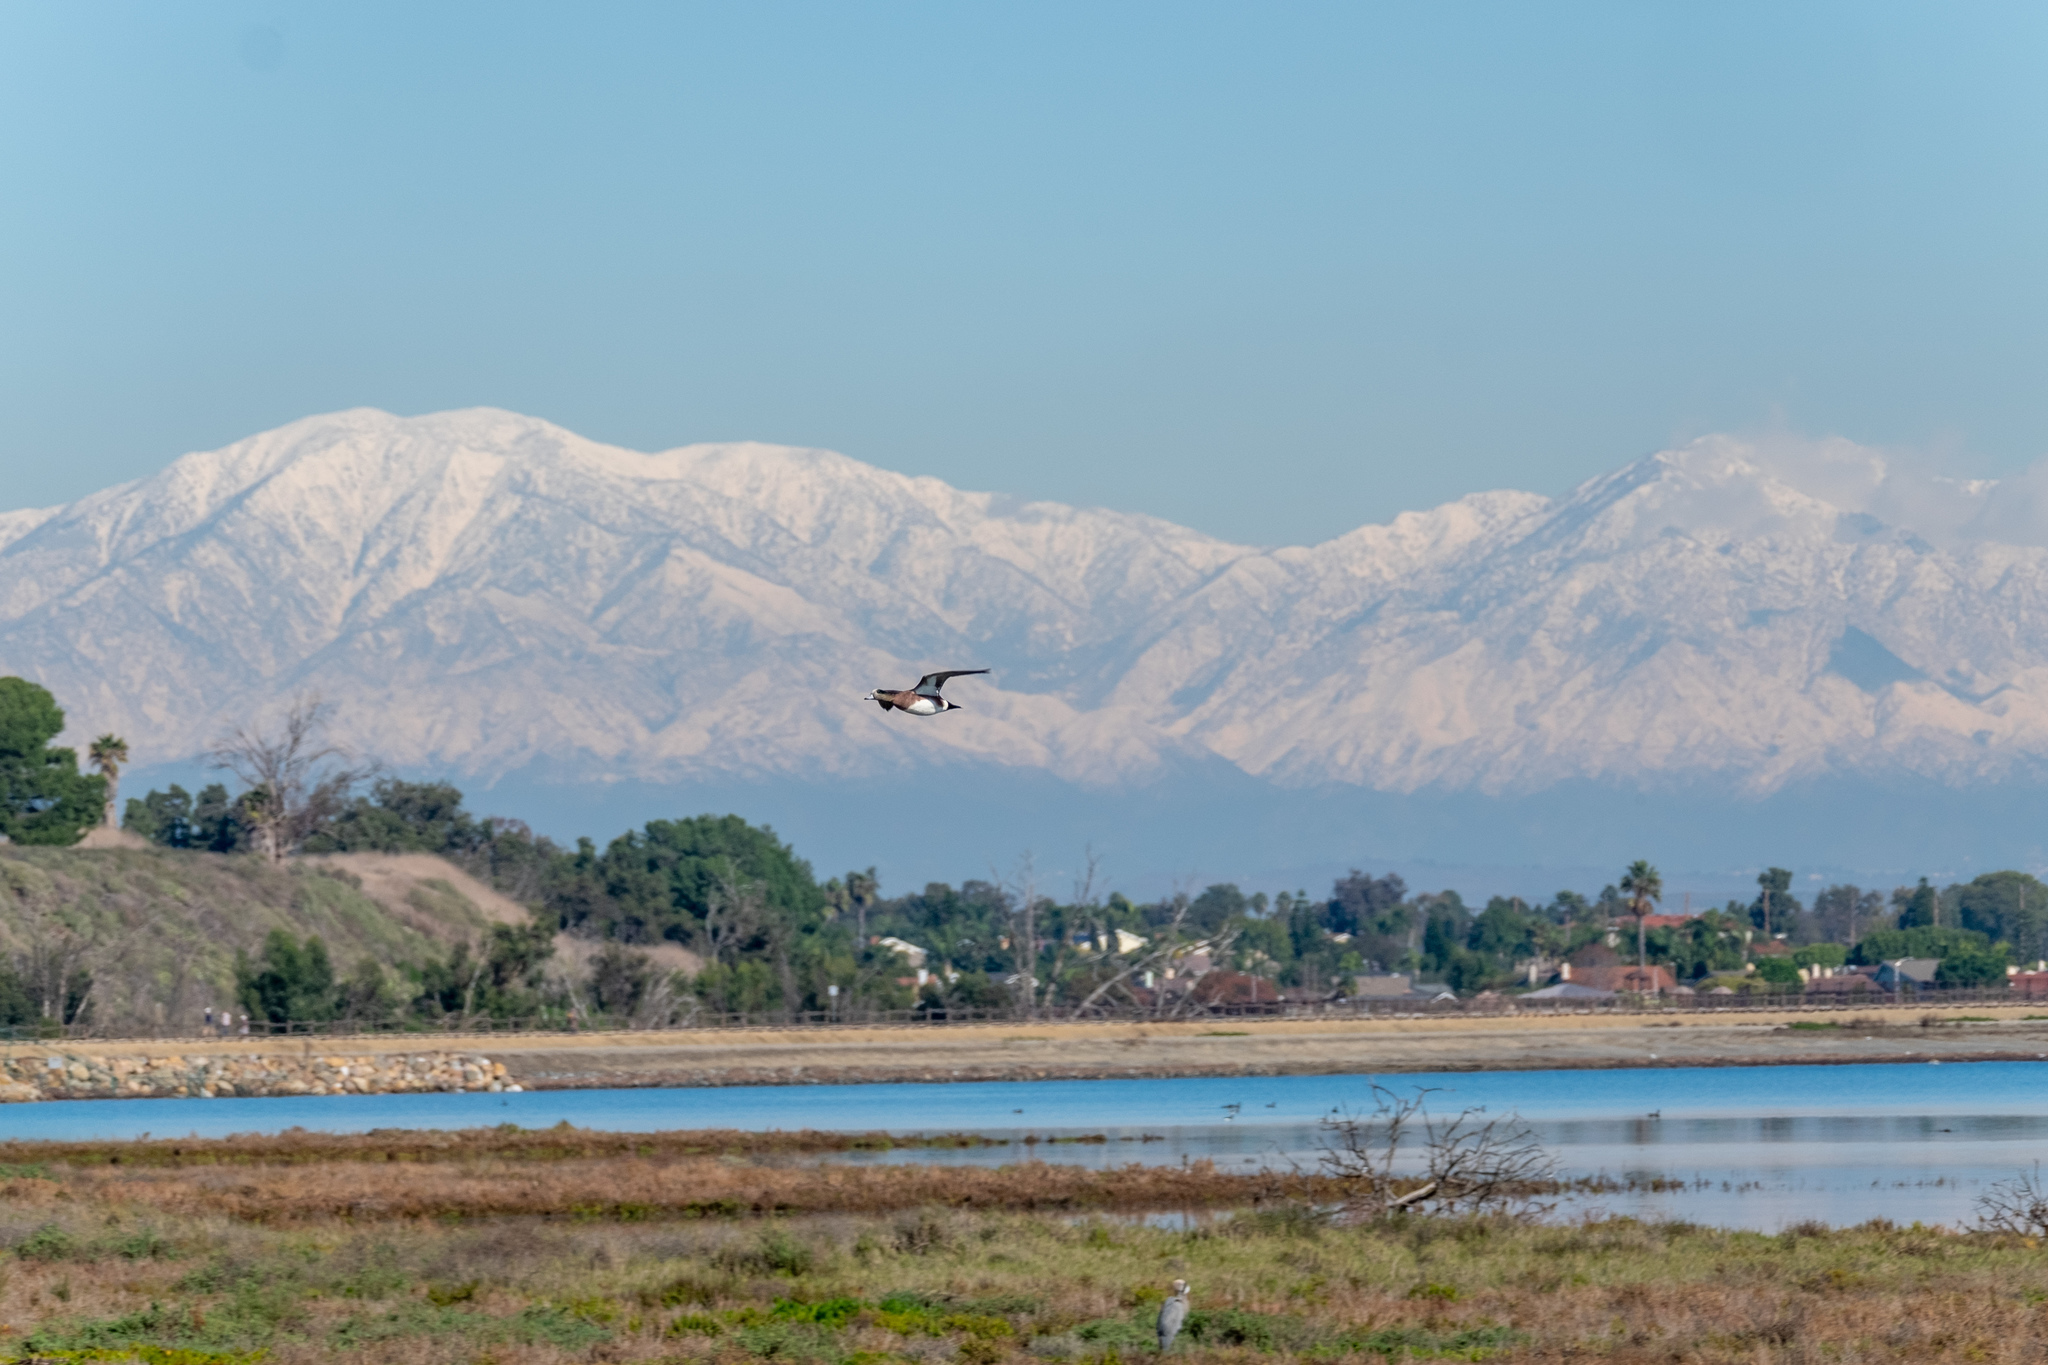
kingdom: Animalia
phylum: Chordata
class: Aves
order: Anseriformes
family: Anatidae
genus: Mareca
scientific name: Mareca americana
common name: American wigeon
